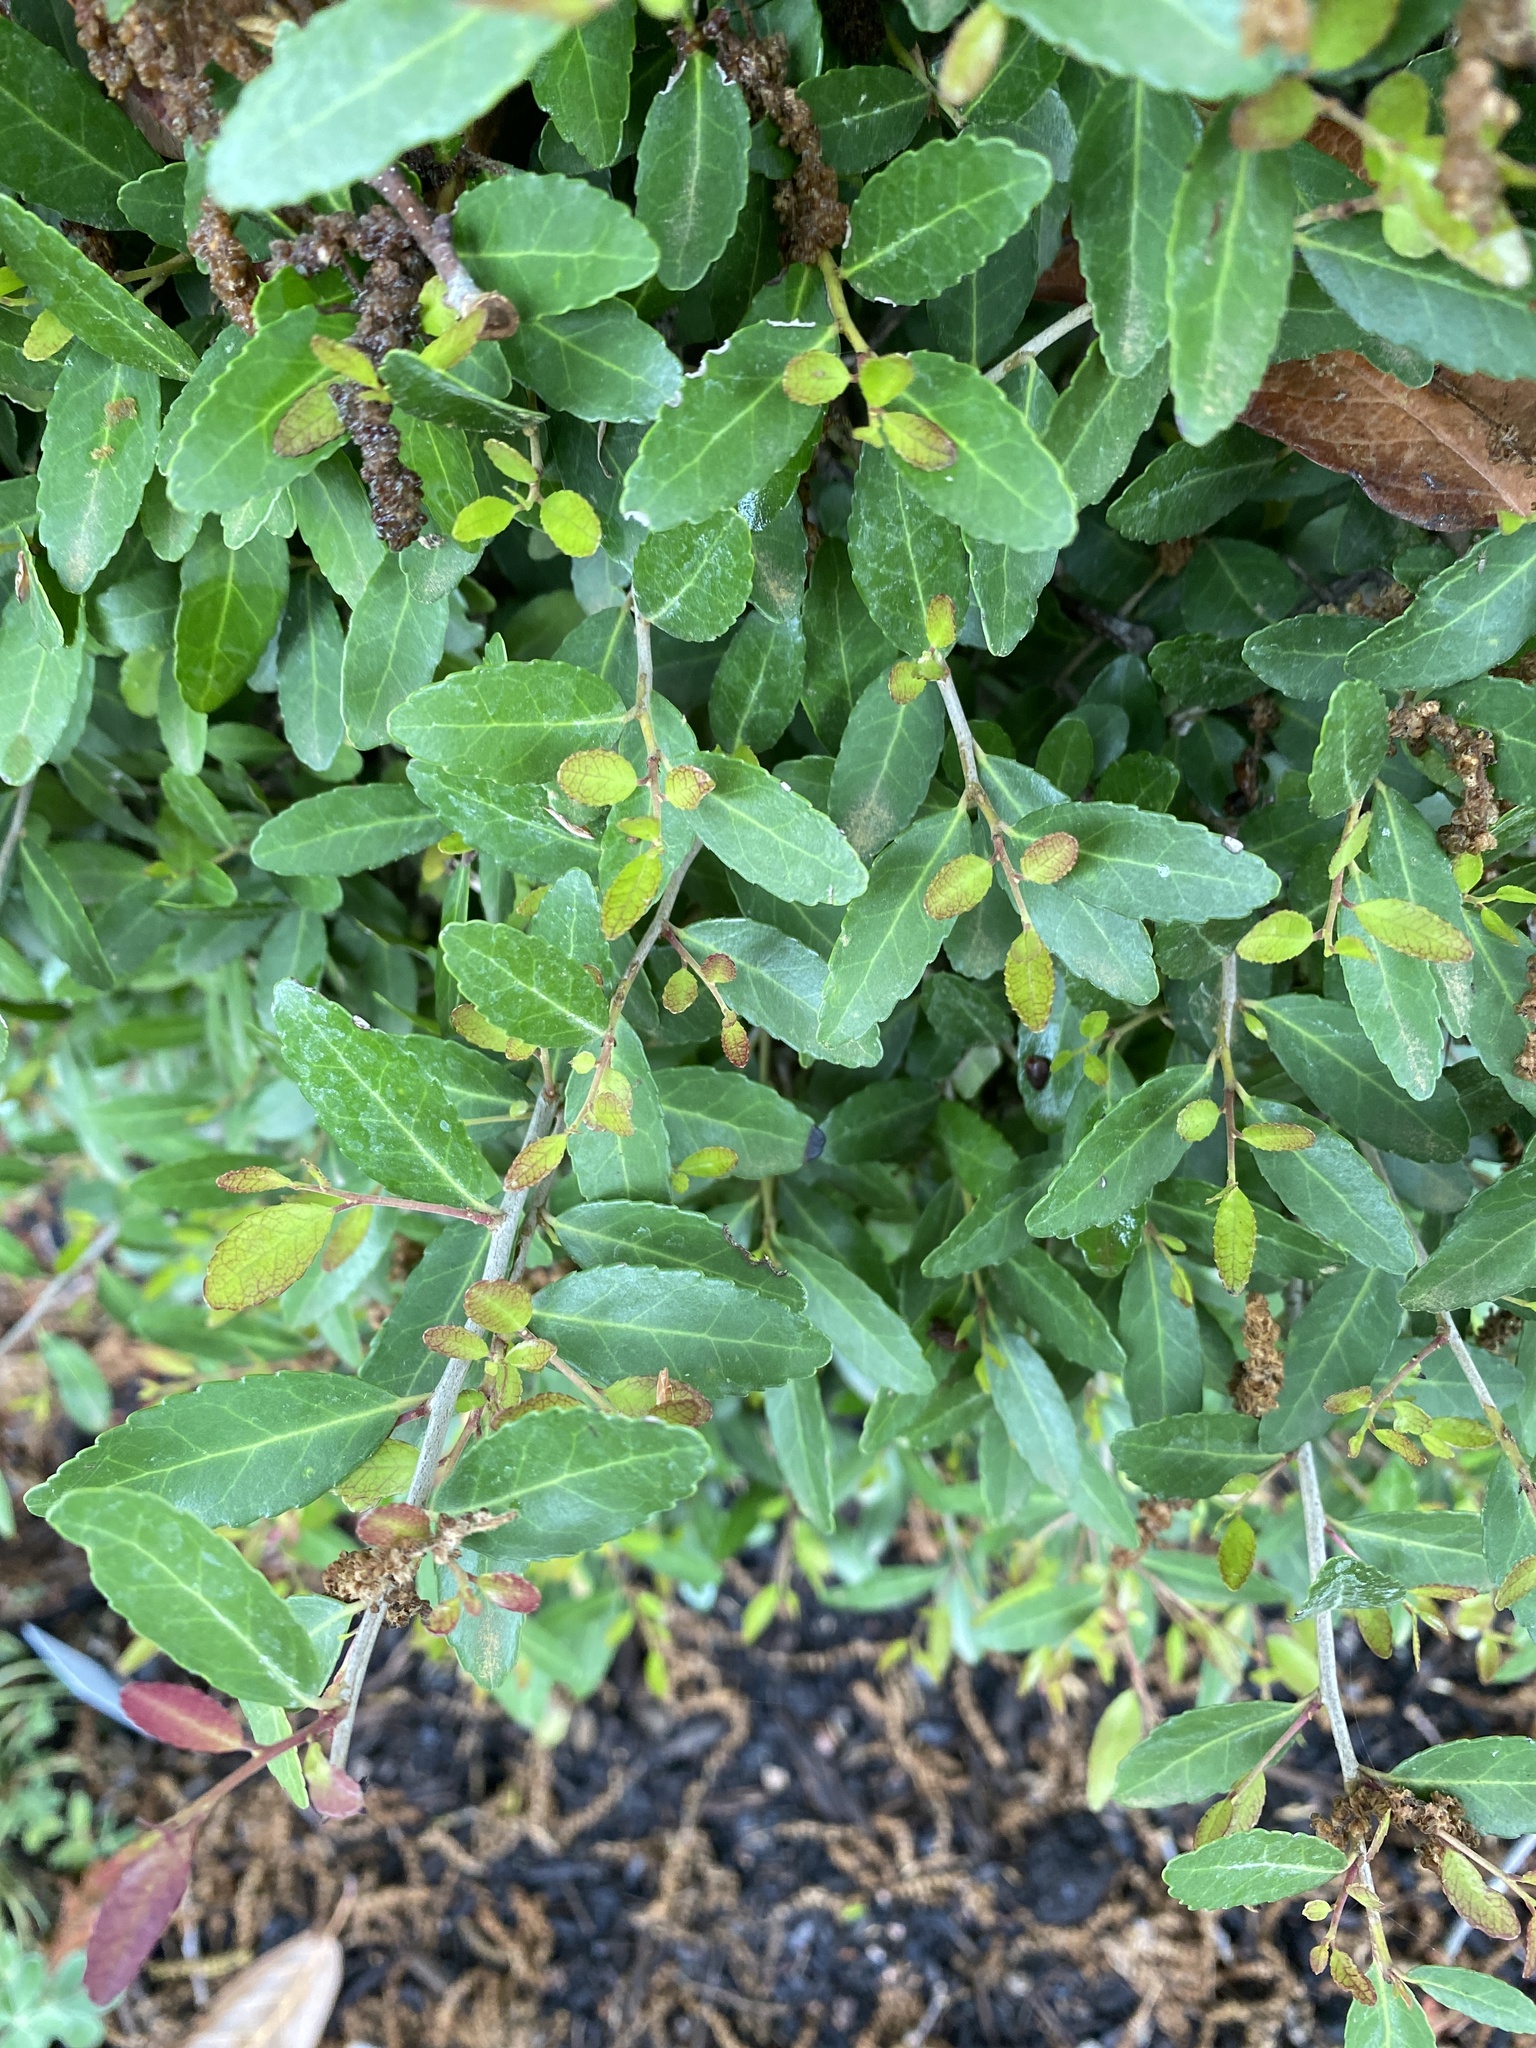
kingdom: Plantae
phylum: Tracheophyta
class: Magnoliopsida
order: Aquifoliales
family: Aquifoliaceae
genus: Ilex
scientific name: Ilex vomitoria
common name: Yaupon holly
